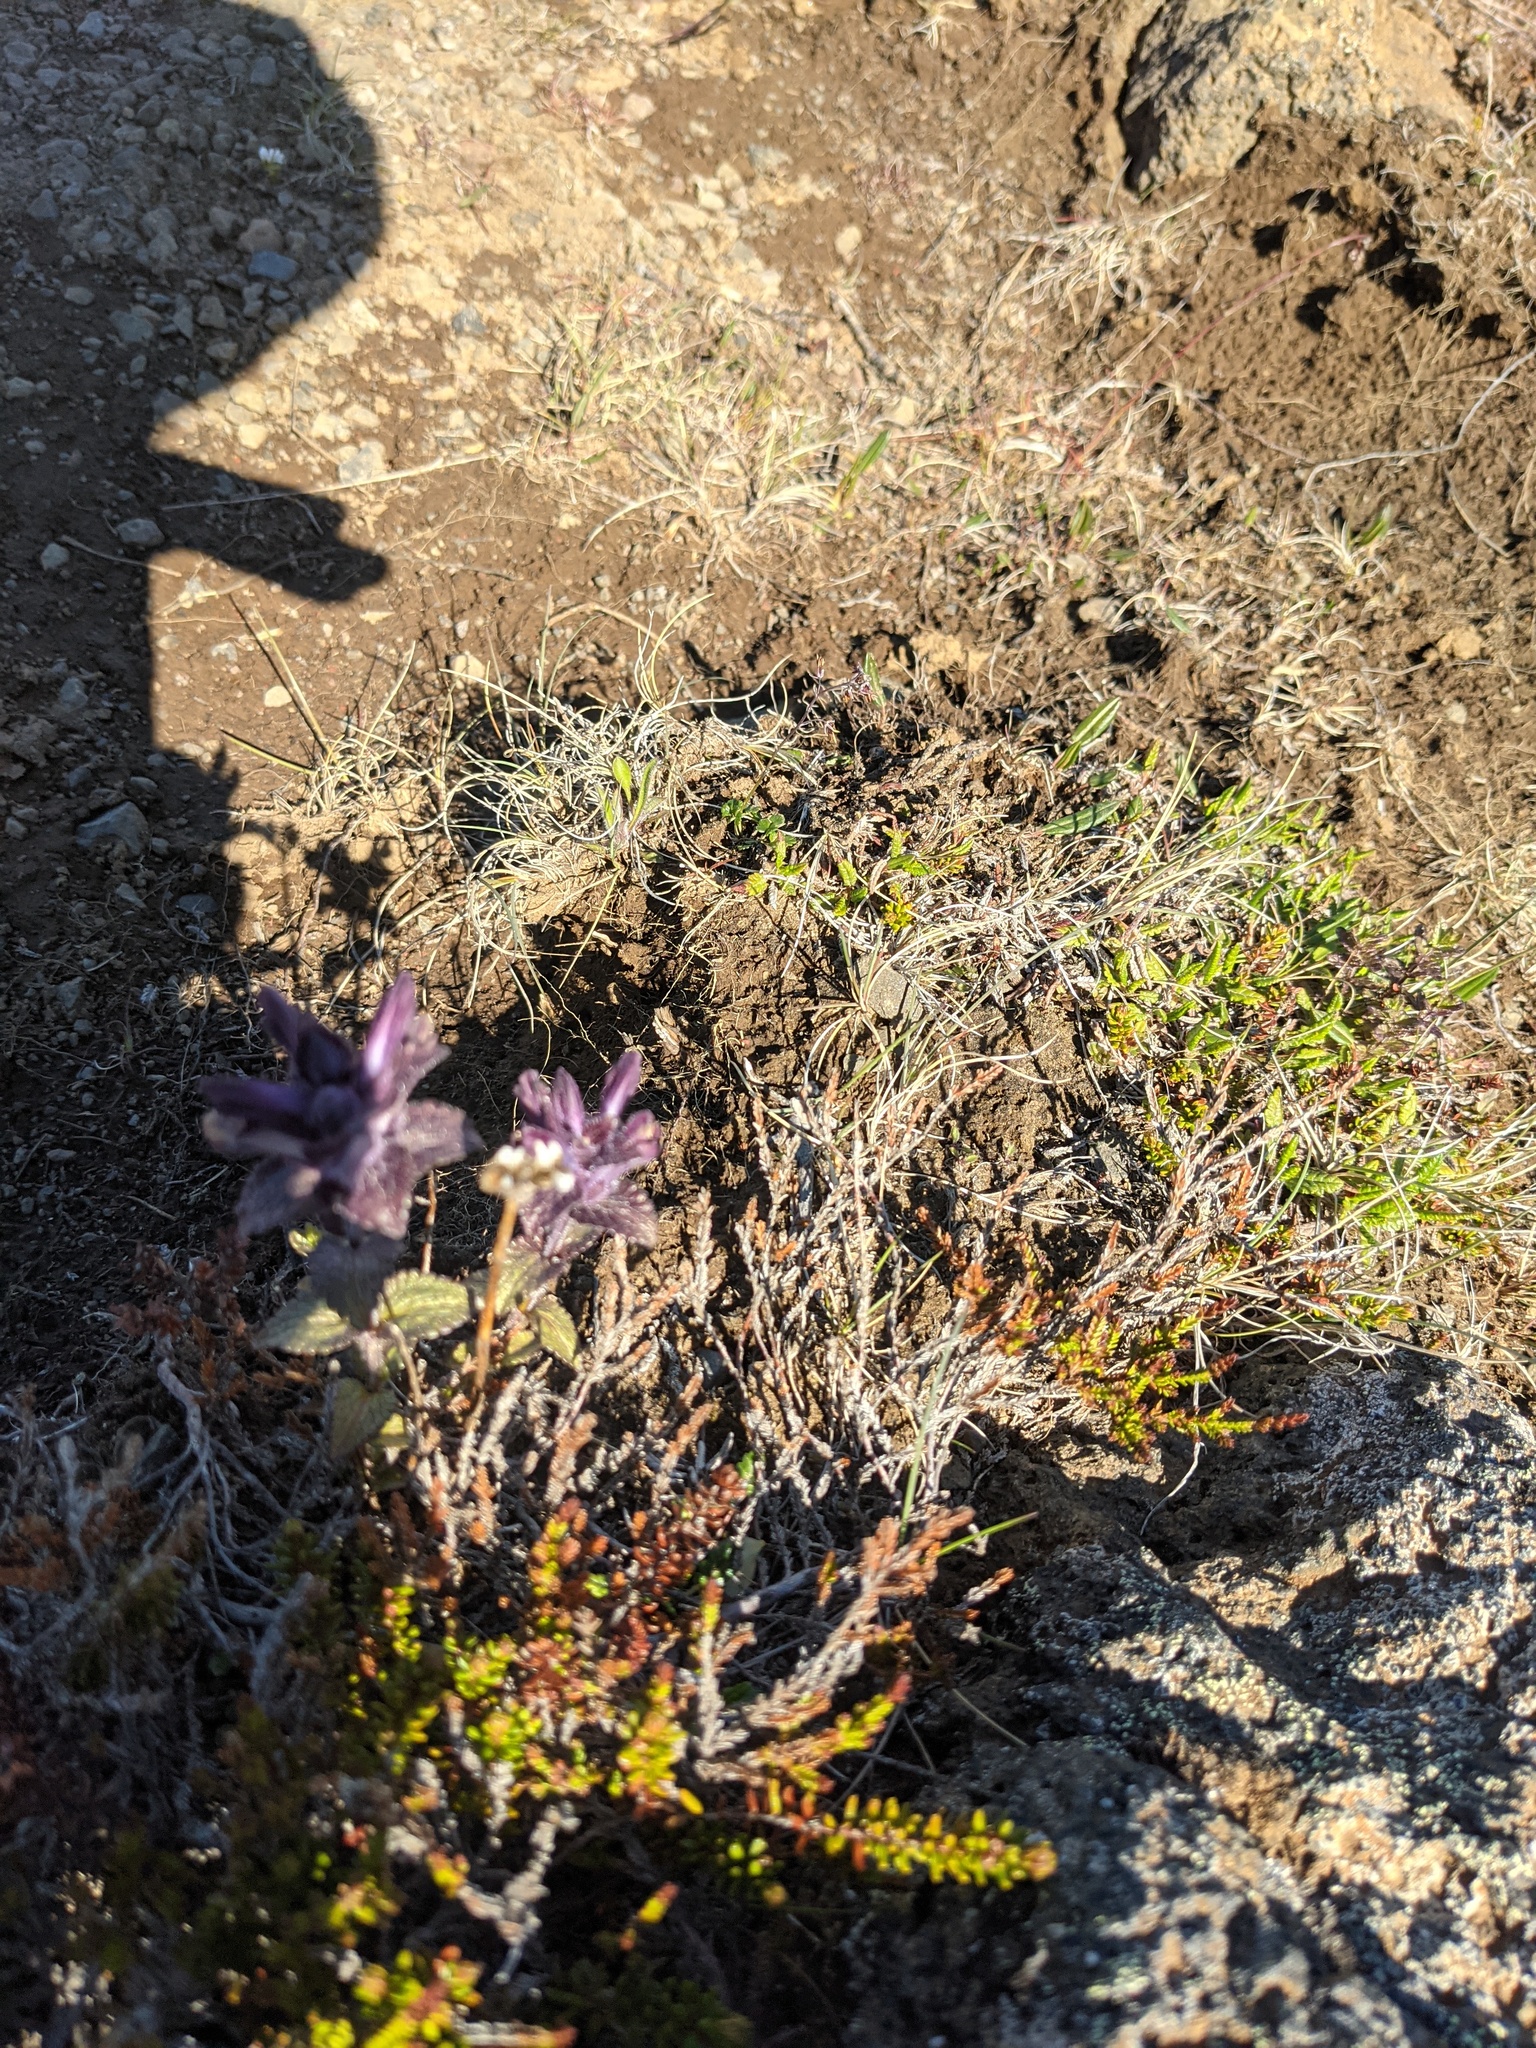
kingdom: Plantae
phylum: Tracheophyta
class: Magnoliopsida
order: Lamiales
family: Orobanchaceae
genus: Bartsia
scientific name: Bartsia alpina
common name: Alpine bartsia
